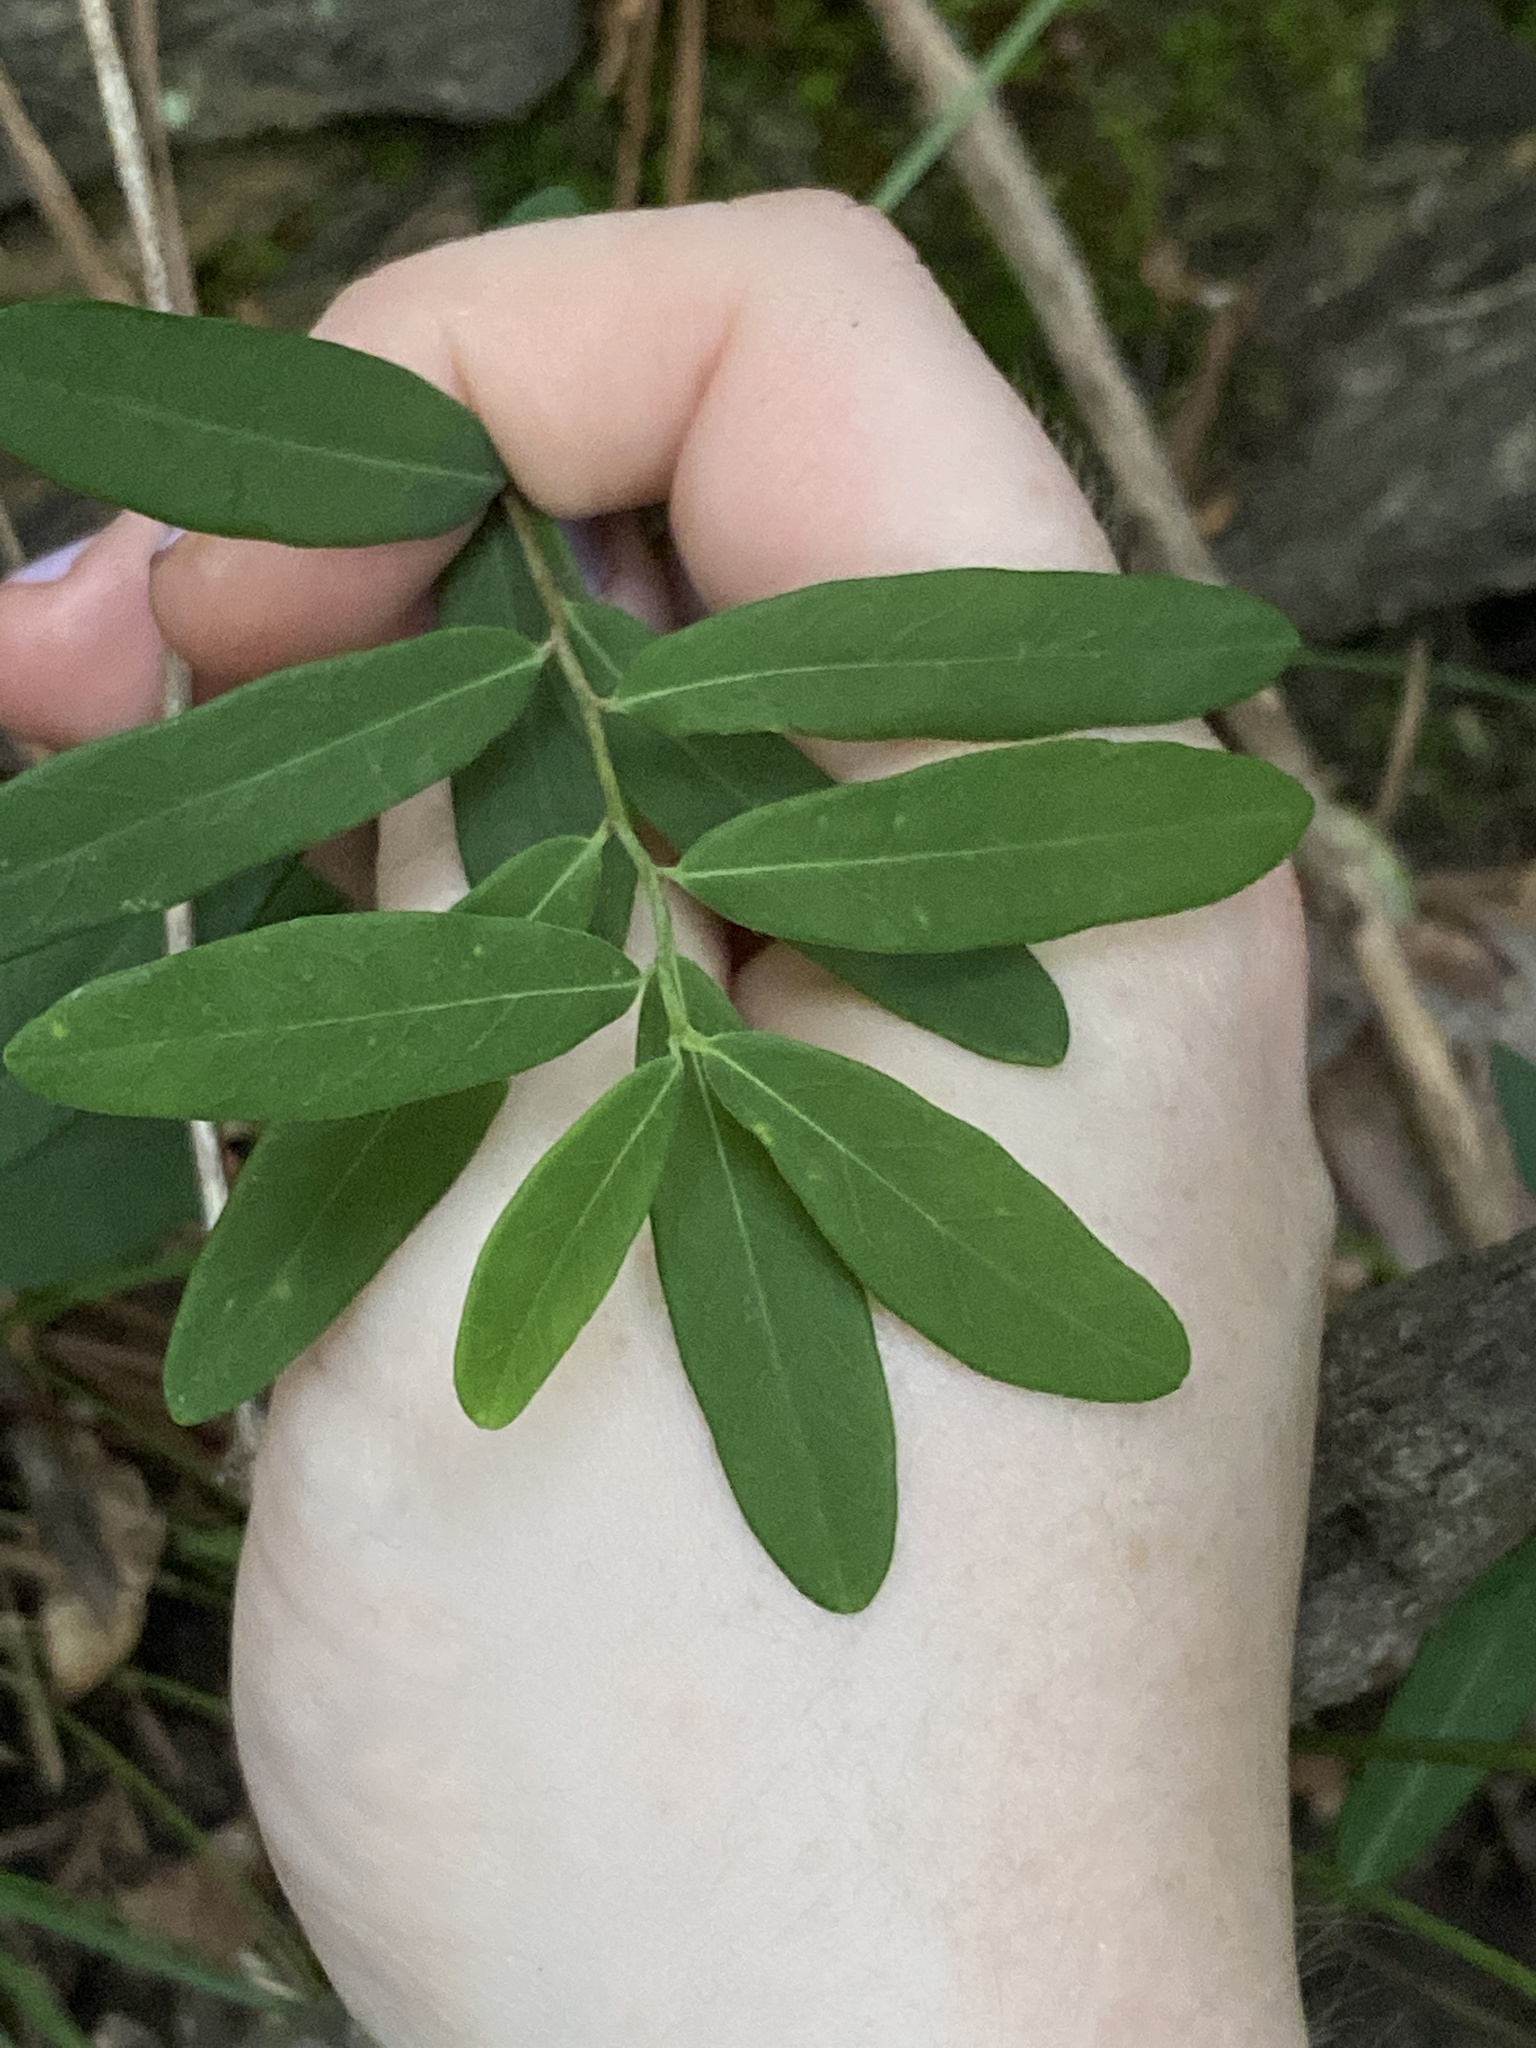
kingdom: Plantae
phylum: Tracheophyta
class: Magnoliopsida
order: Malpighiales
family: Euphorbiaceae
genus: Euphorbia
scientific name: Euphorbia corollata
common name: Flowering spurge
